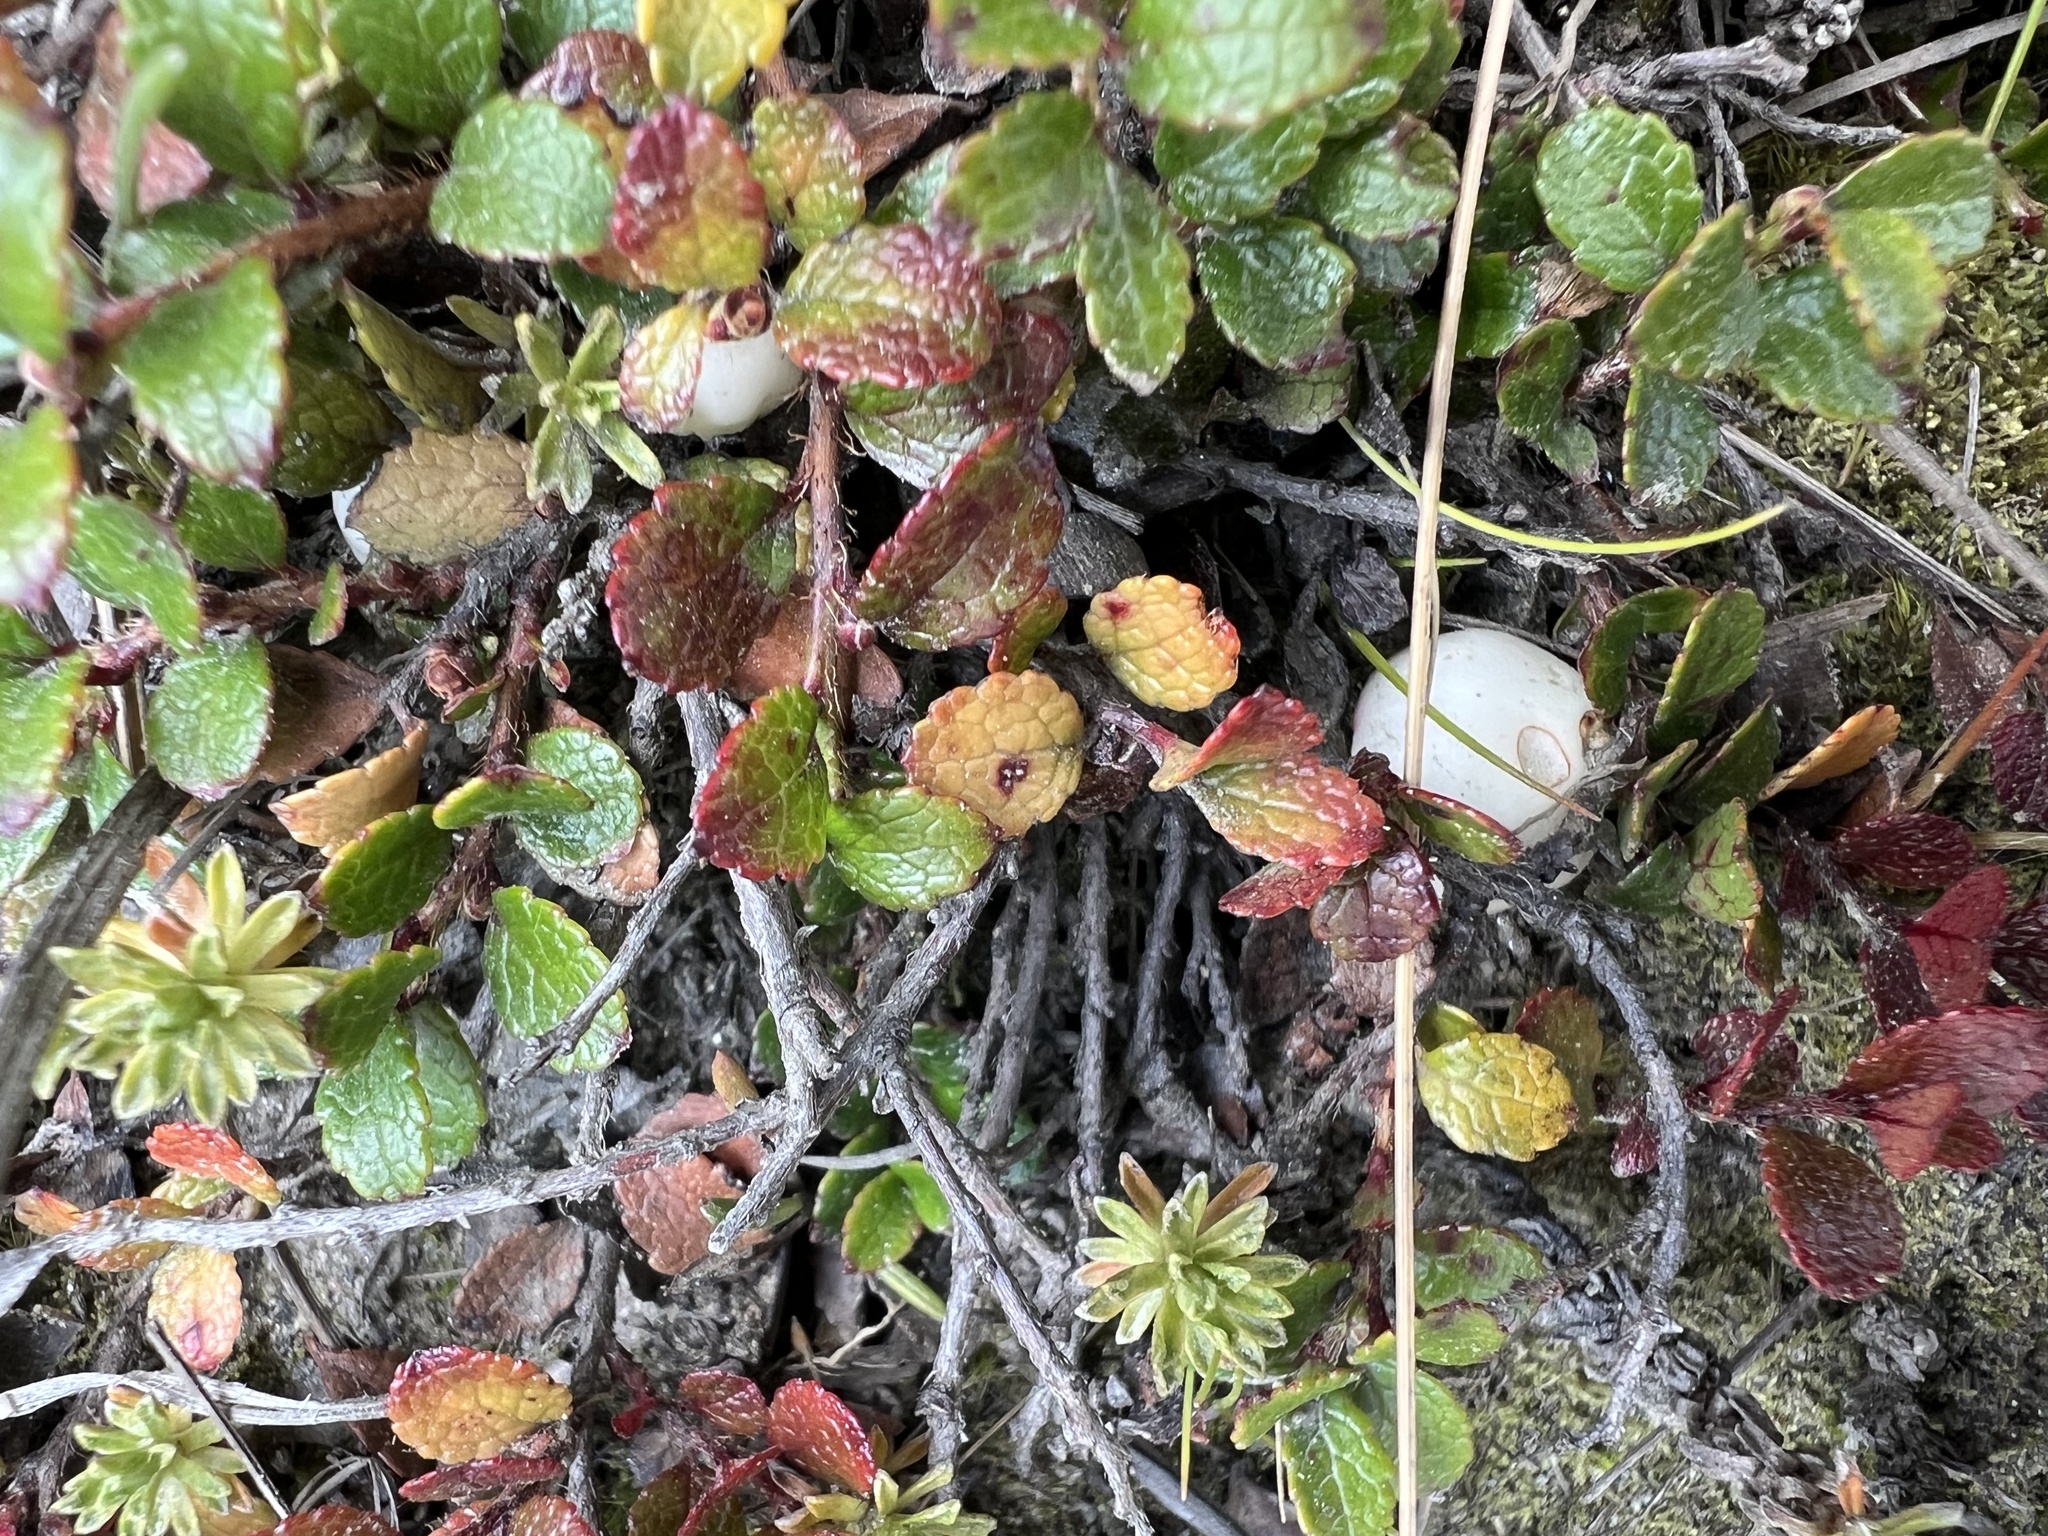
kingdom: Plantae
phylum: Tracheophyta
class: Magnoliopsida
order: Ericales
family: Ericaceae
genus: Gaultheria
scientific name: Gaultheria depressa
